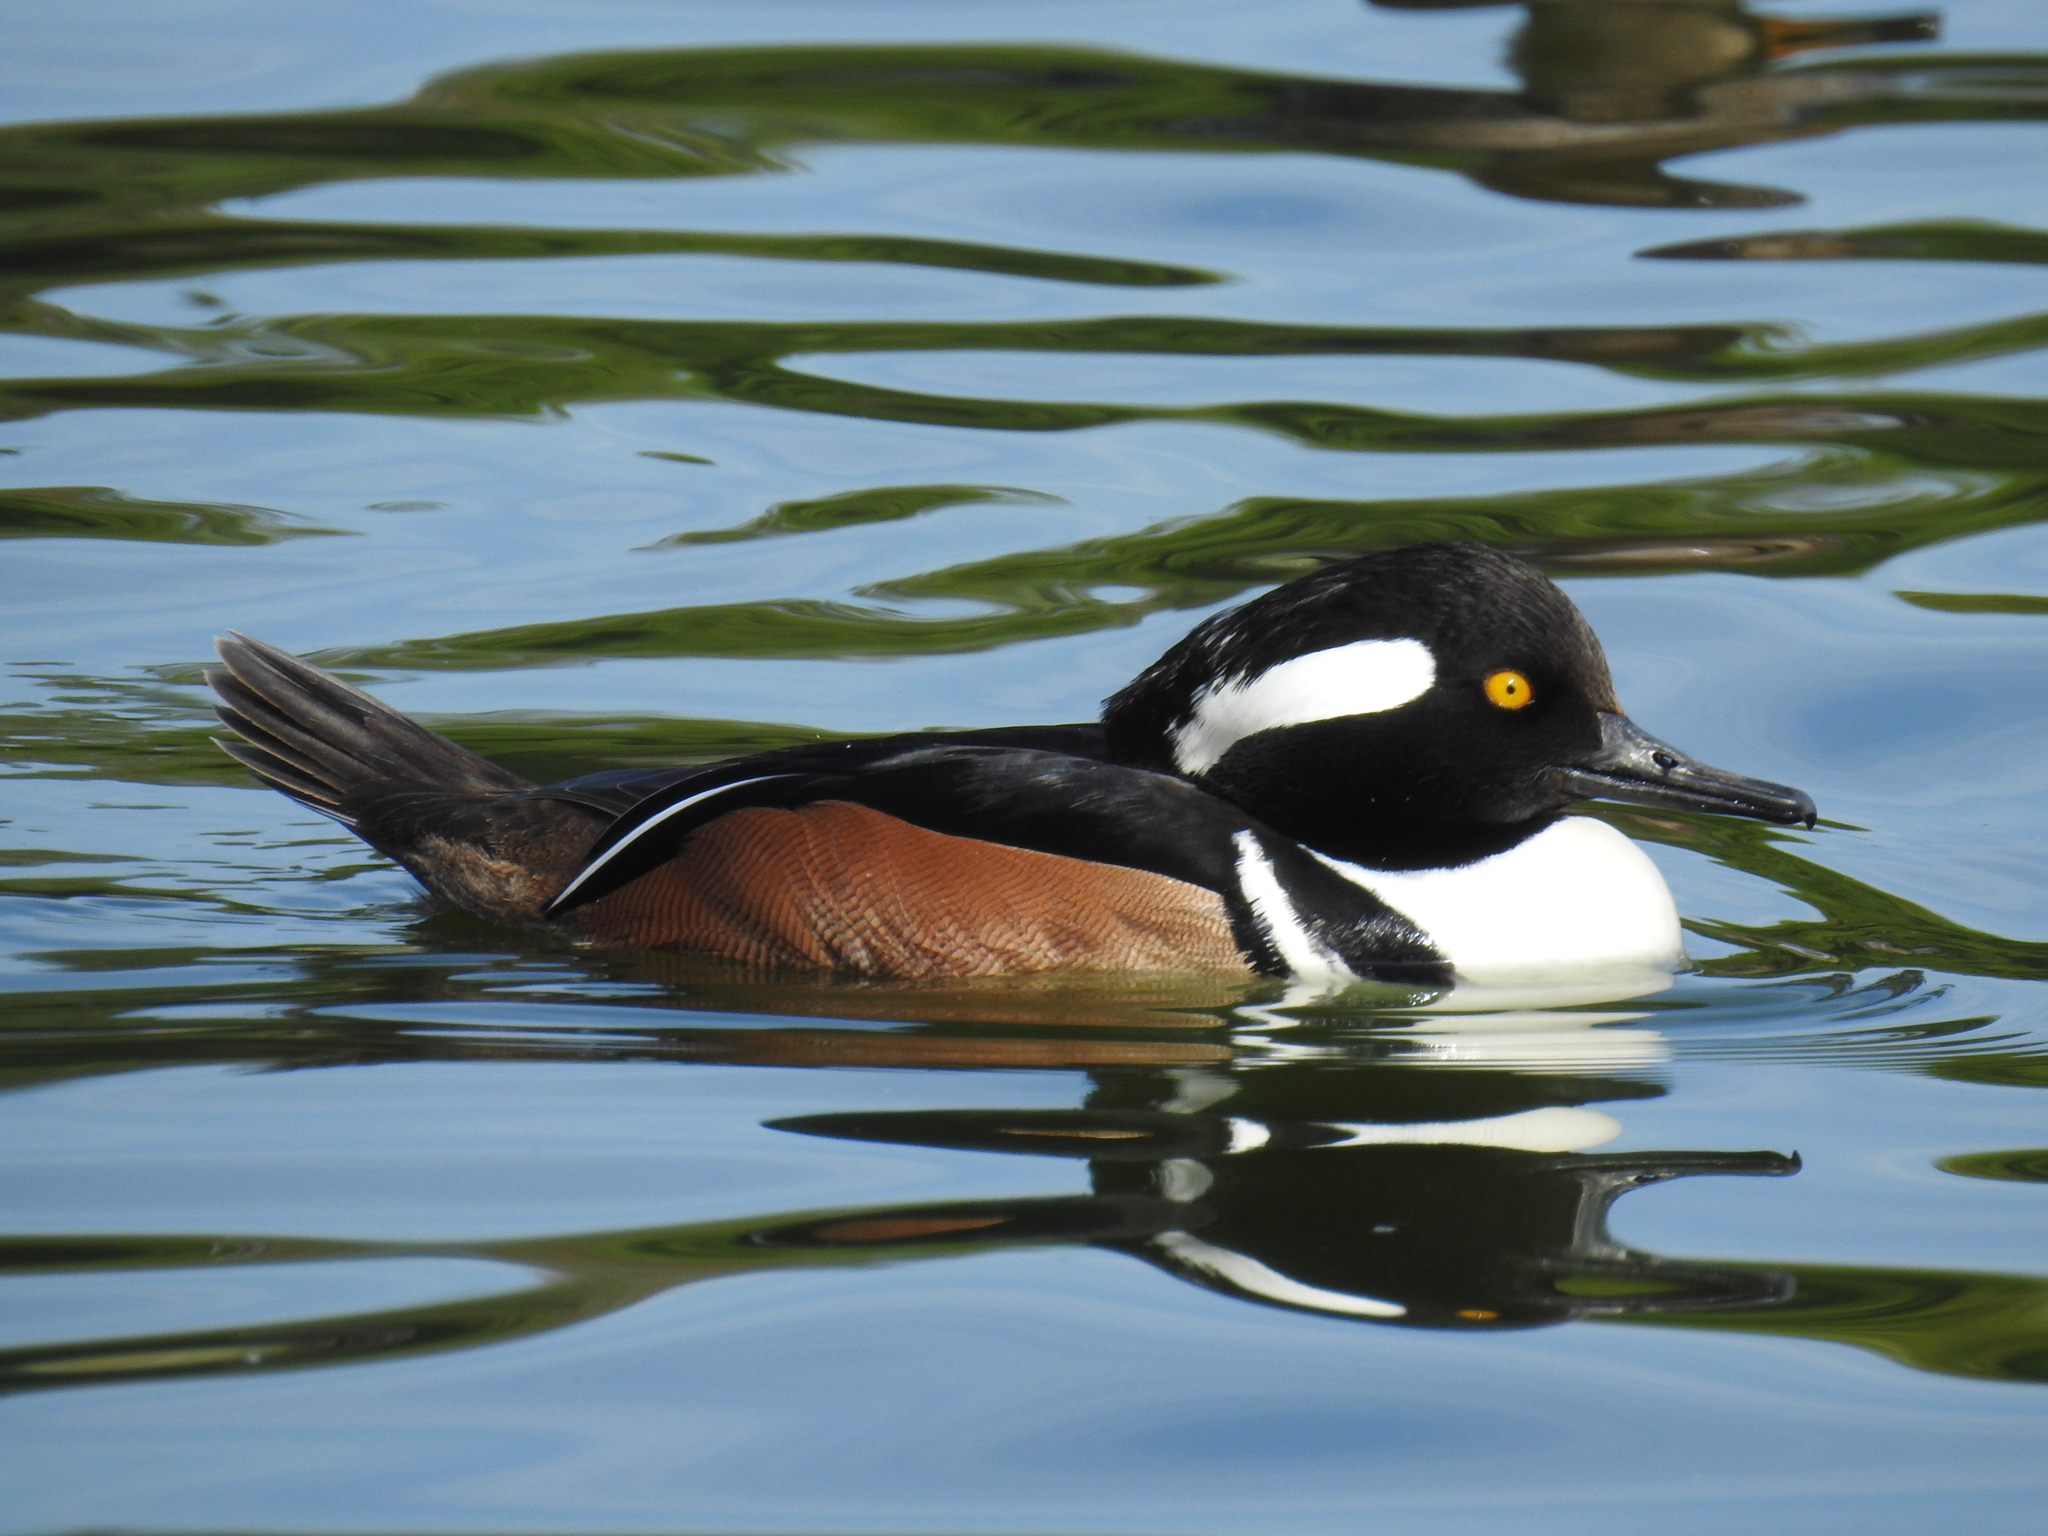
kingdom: Animalia
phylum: Chordata
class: Aves
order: Anseriformes
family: Anatidae
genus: Lophodytes
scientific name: Lophodytes cucullatus
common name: Hooded merganser
